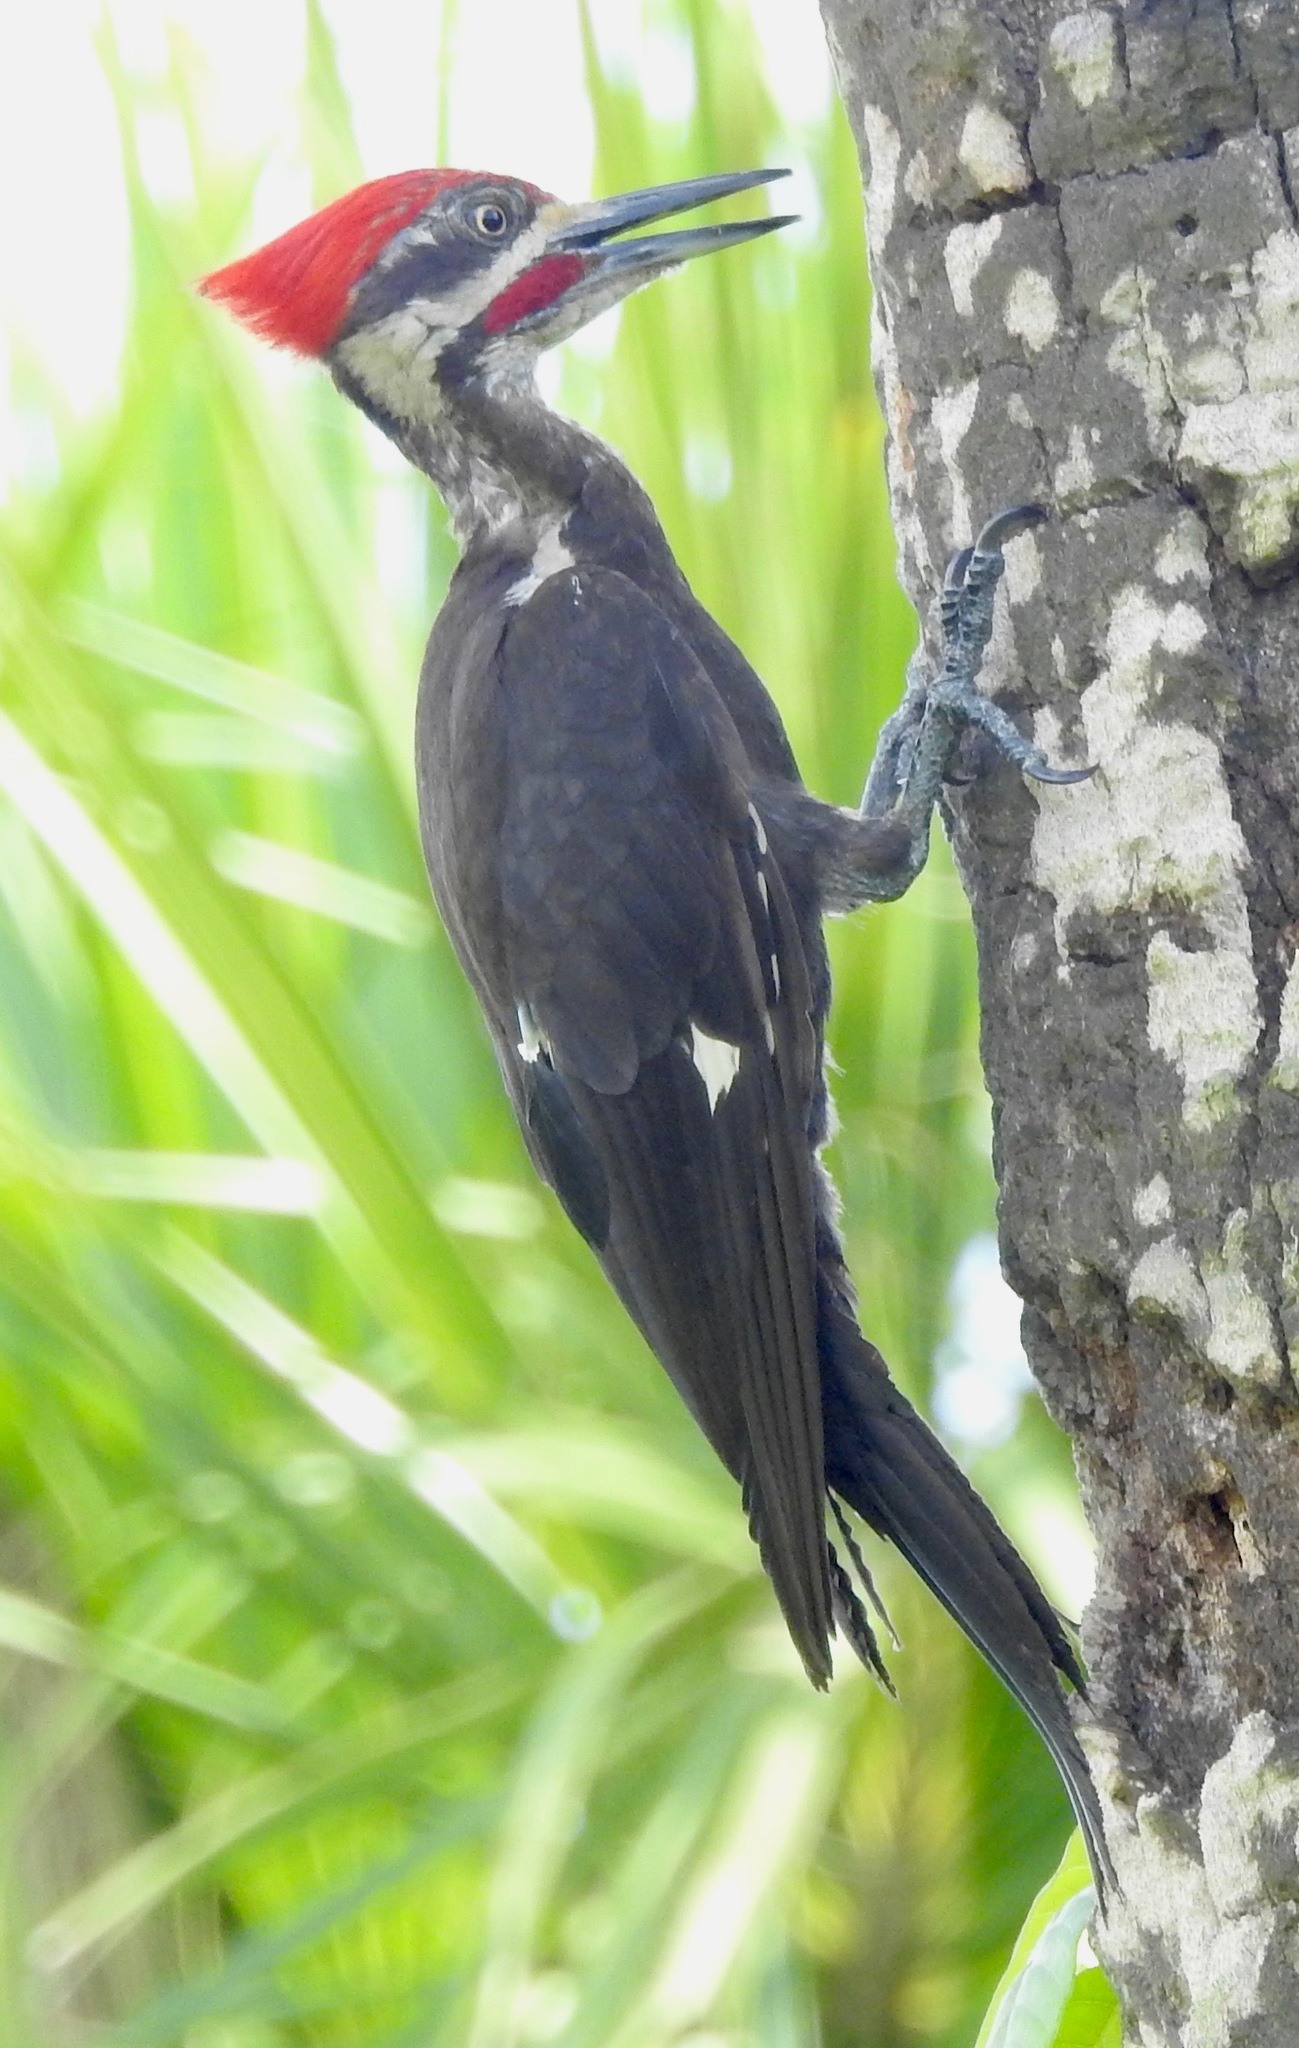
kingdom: Animalia
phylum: Chordata
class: Aves
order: Piciformes
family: Picidae
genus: Dryocopus
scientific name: Dryocopus pileatus
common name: Pileated woodpecker
